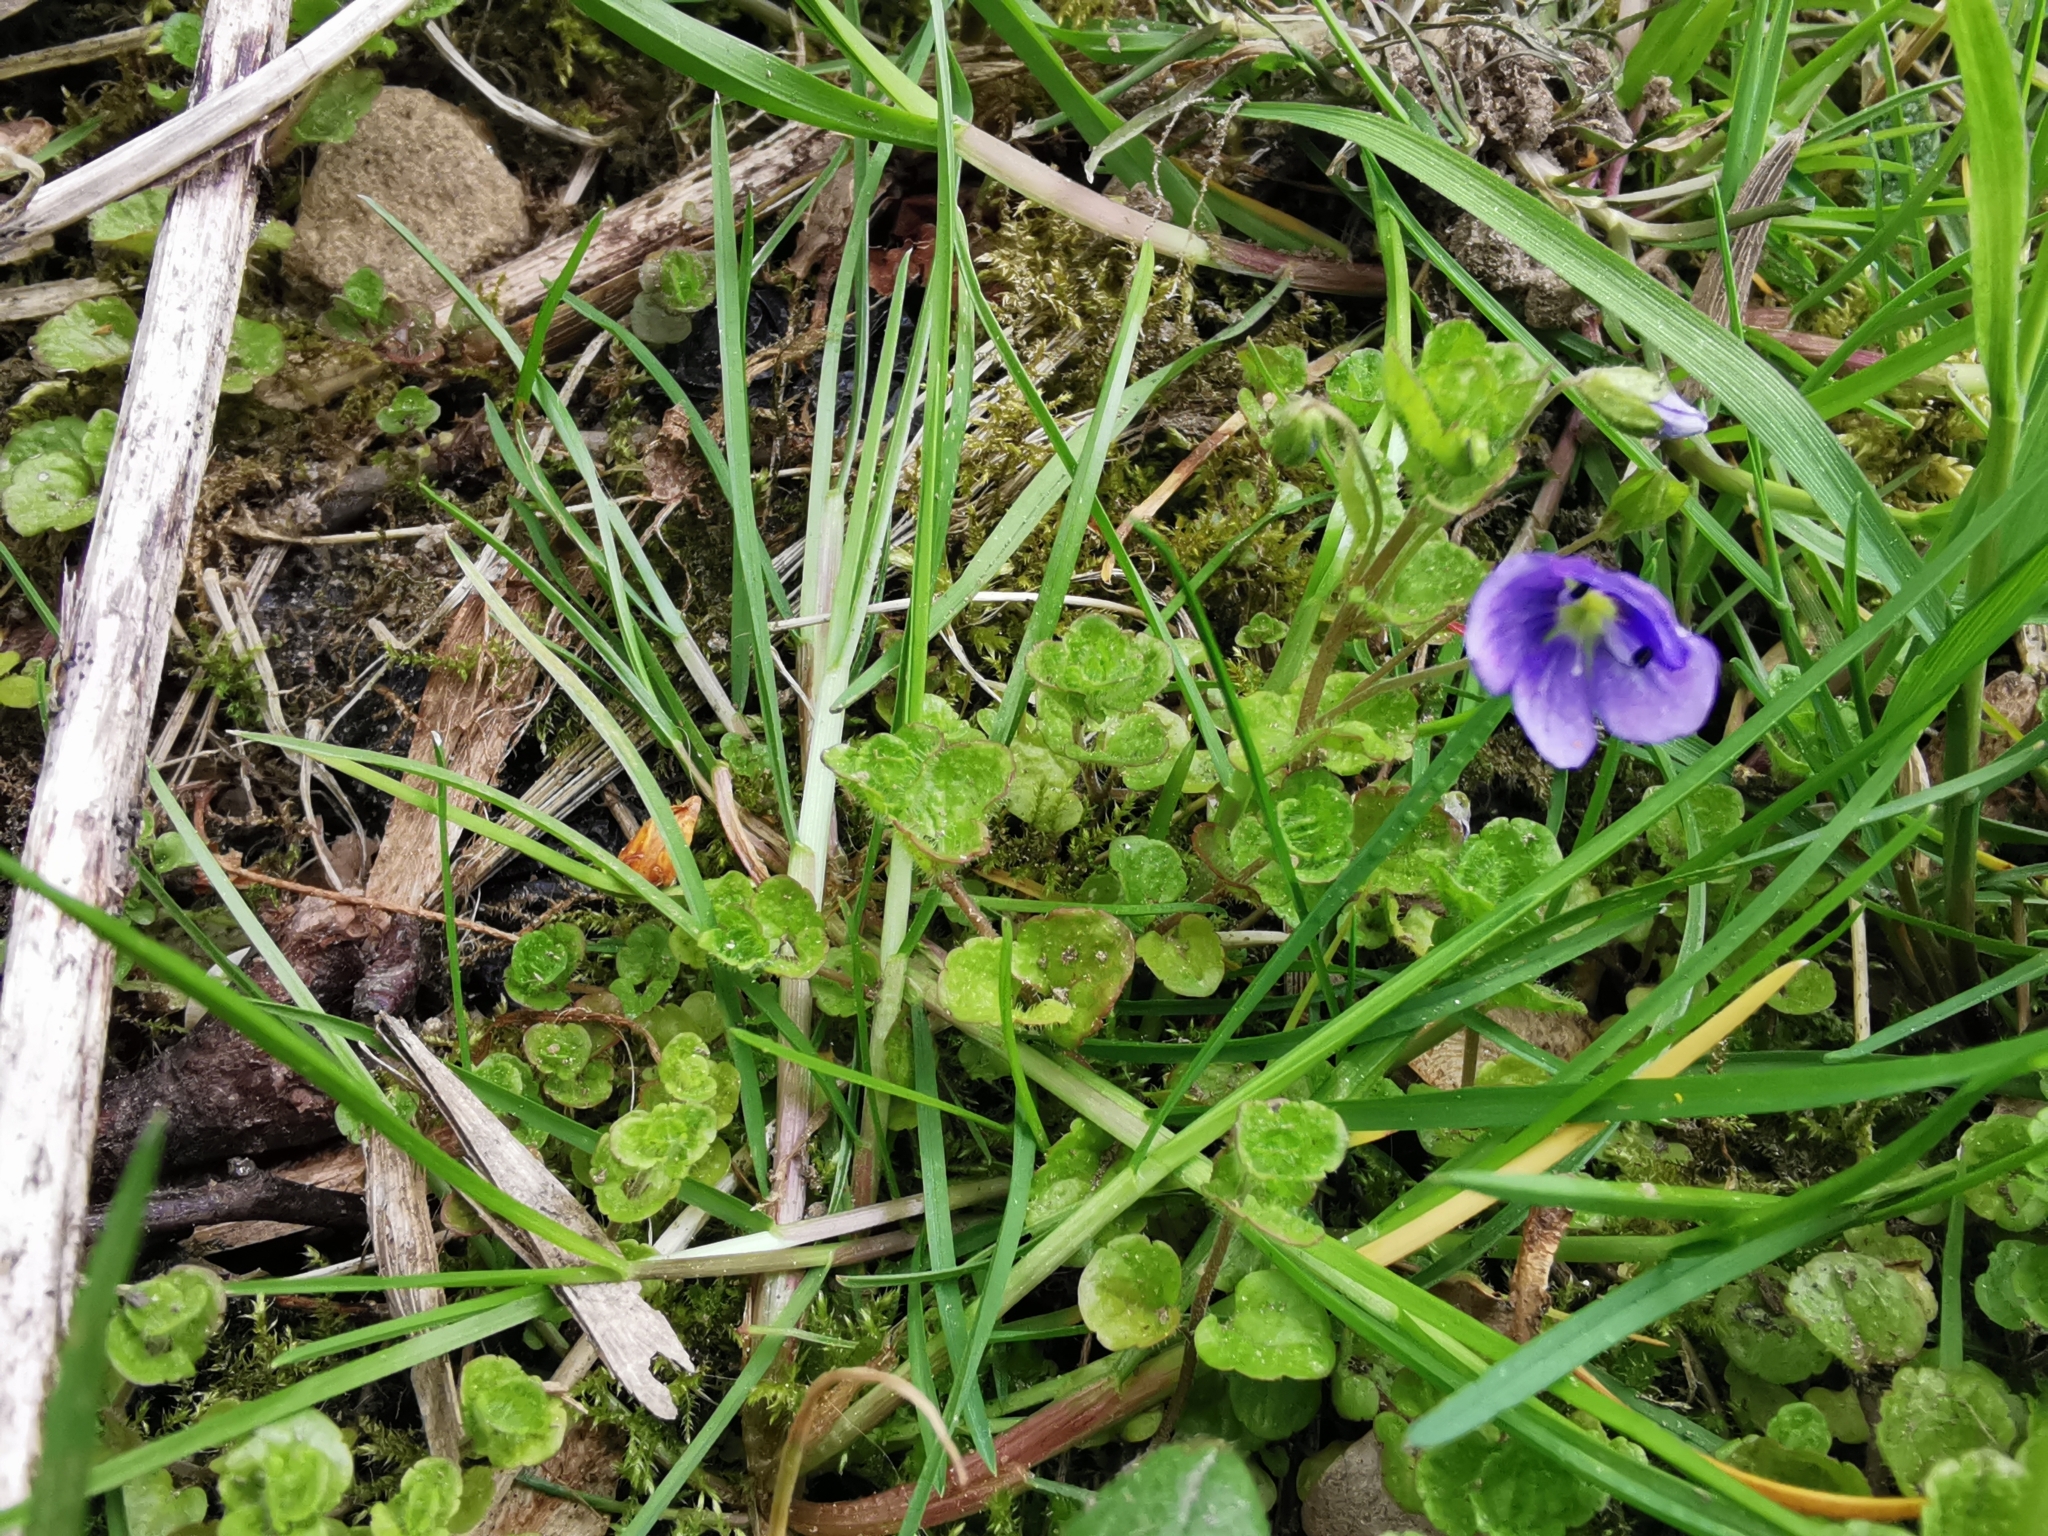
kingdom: Plantae
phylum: Tracheophyta
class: Magnoliopsida
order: Lamiales
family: Plantaginaceae
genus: Veronica
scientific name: Veronica filiformis
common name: Slender speedwell
